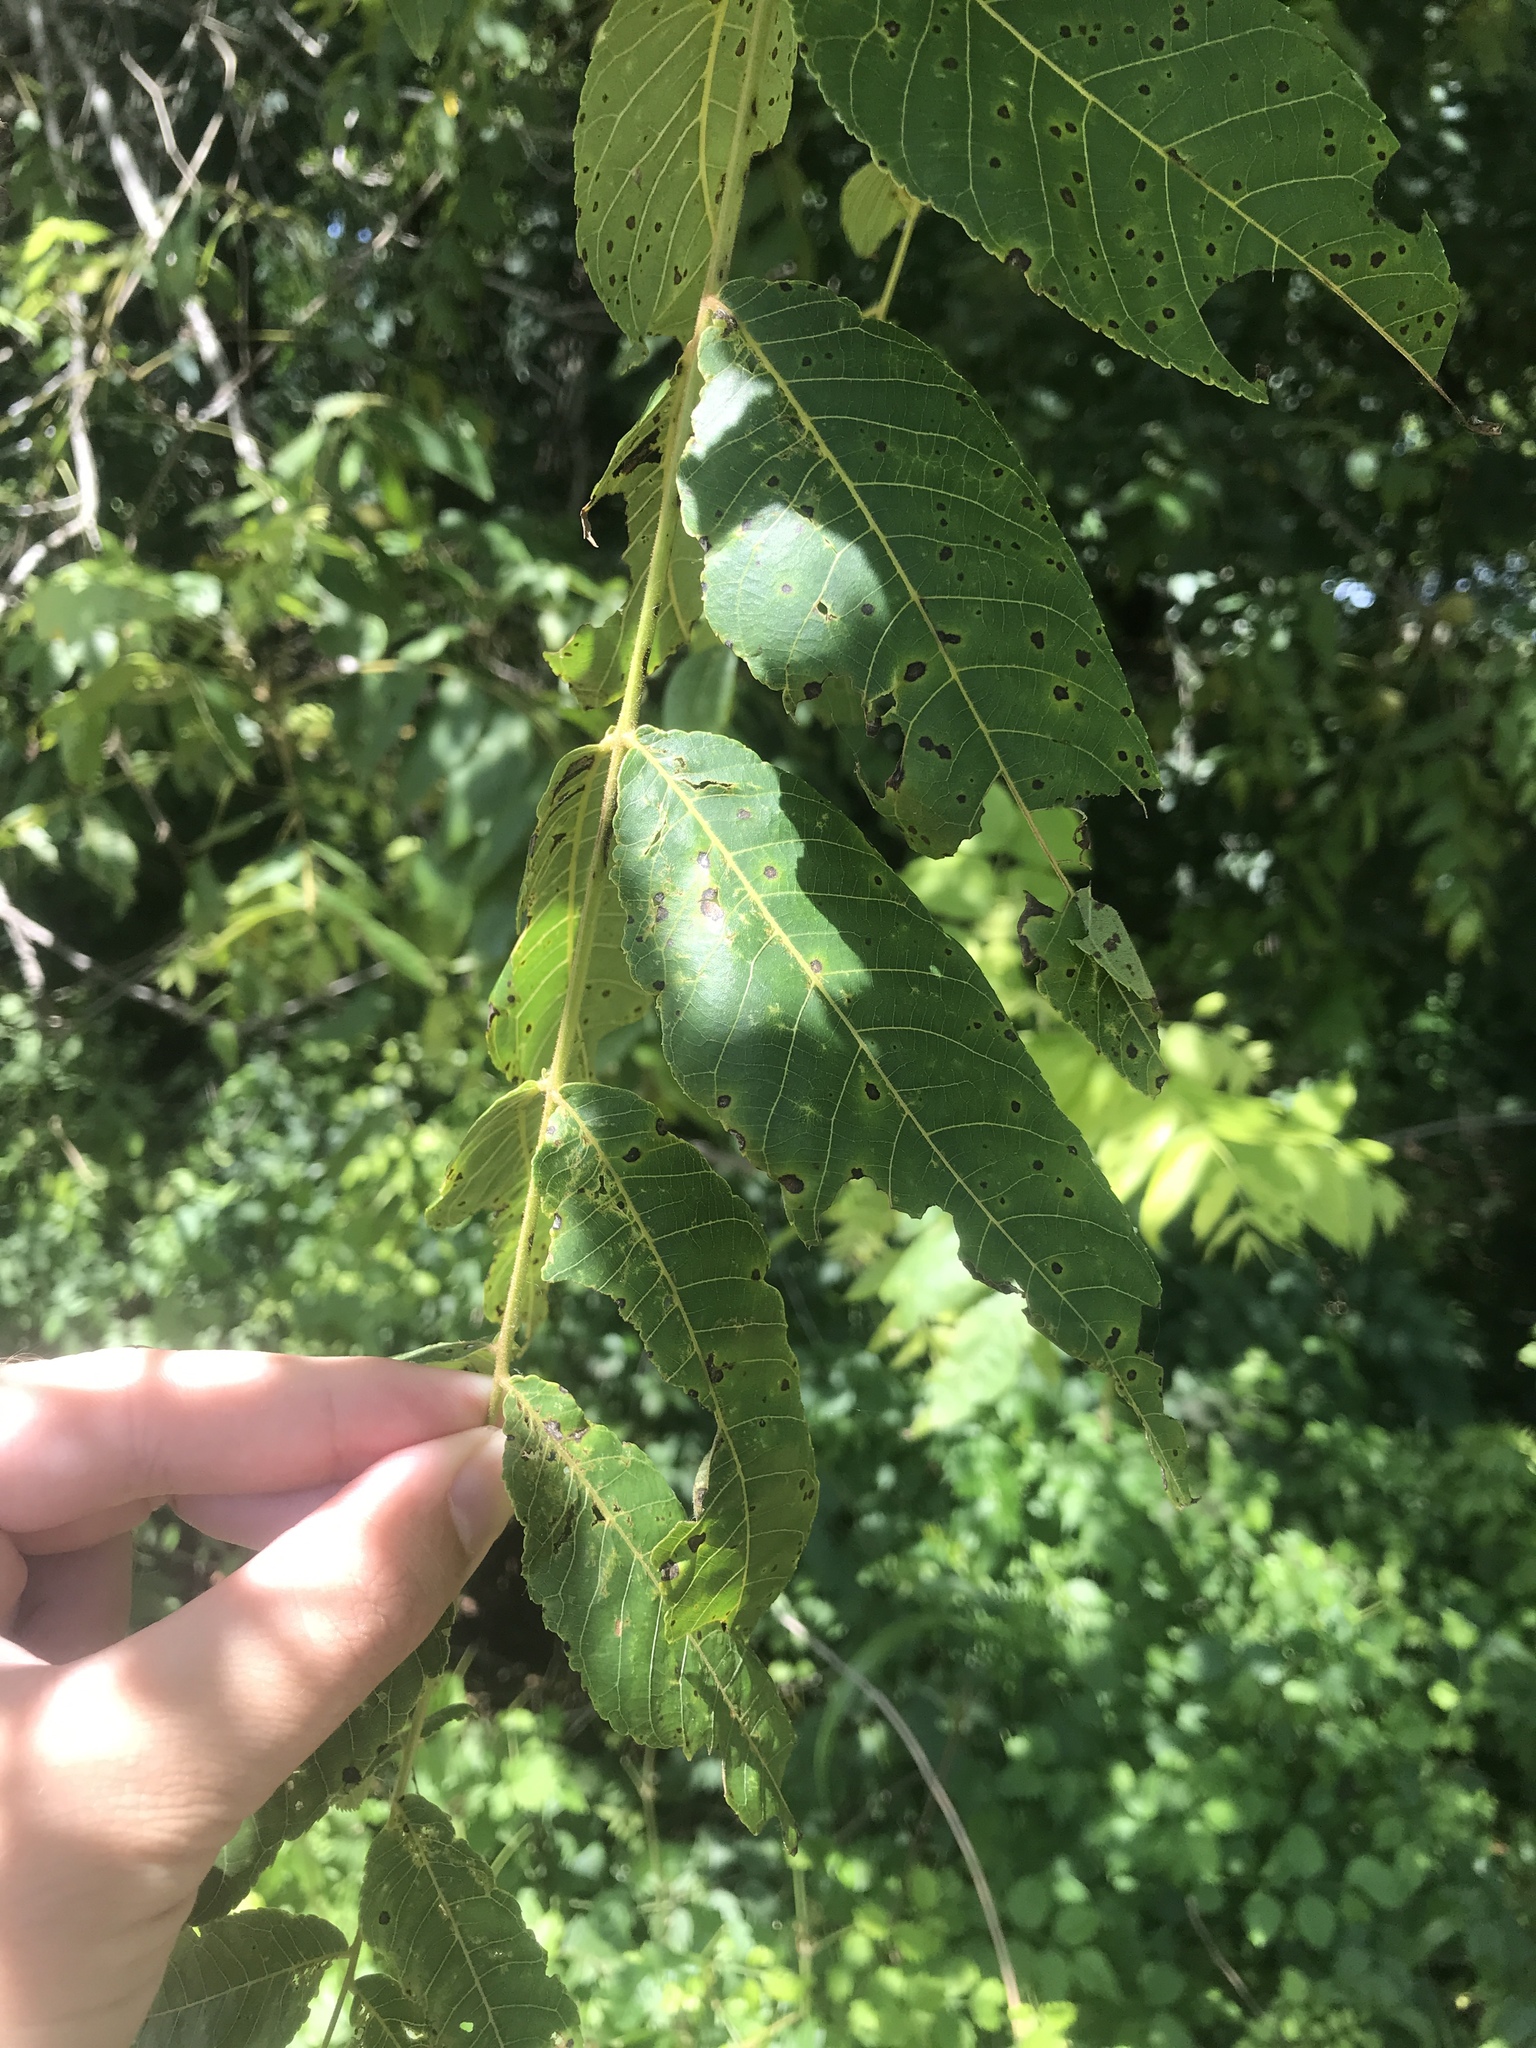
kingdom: Plantae
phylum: Tracheophyta
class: Magnoliopsida
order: Fagales
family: Juglandaceae
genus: Juglans
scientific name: Juglans nigra
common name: Black walnut
